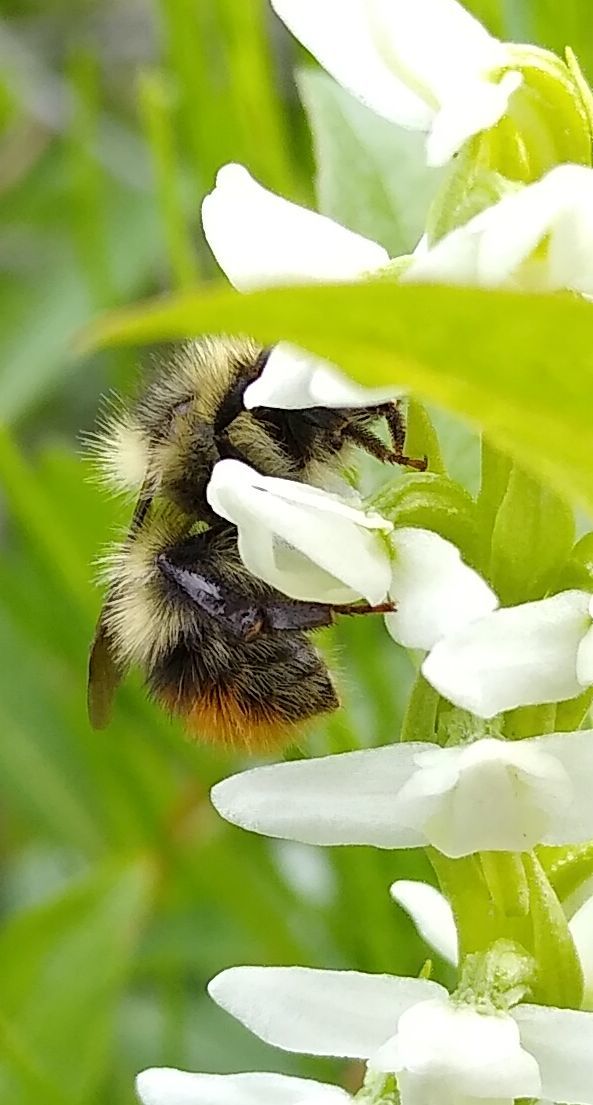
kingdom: Animalia
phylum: Arthropoda
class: Insecta
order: Hymenoptera
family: Apidae
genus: Bombus
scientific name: Bombus frigidus
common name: Frigid bumble bee
